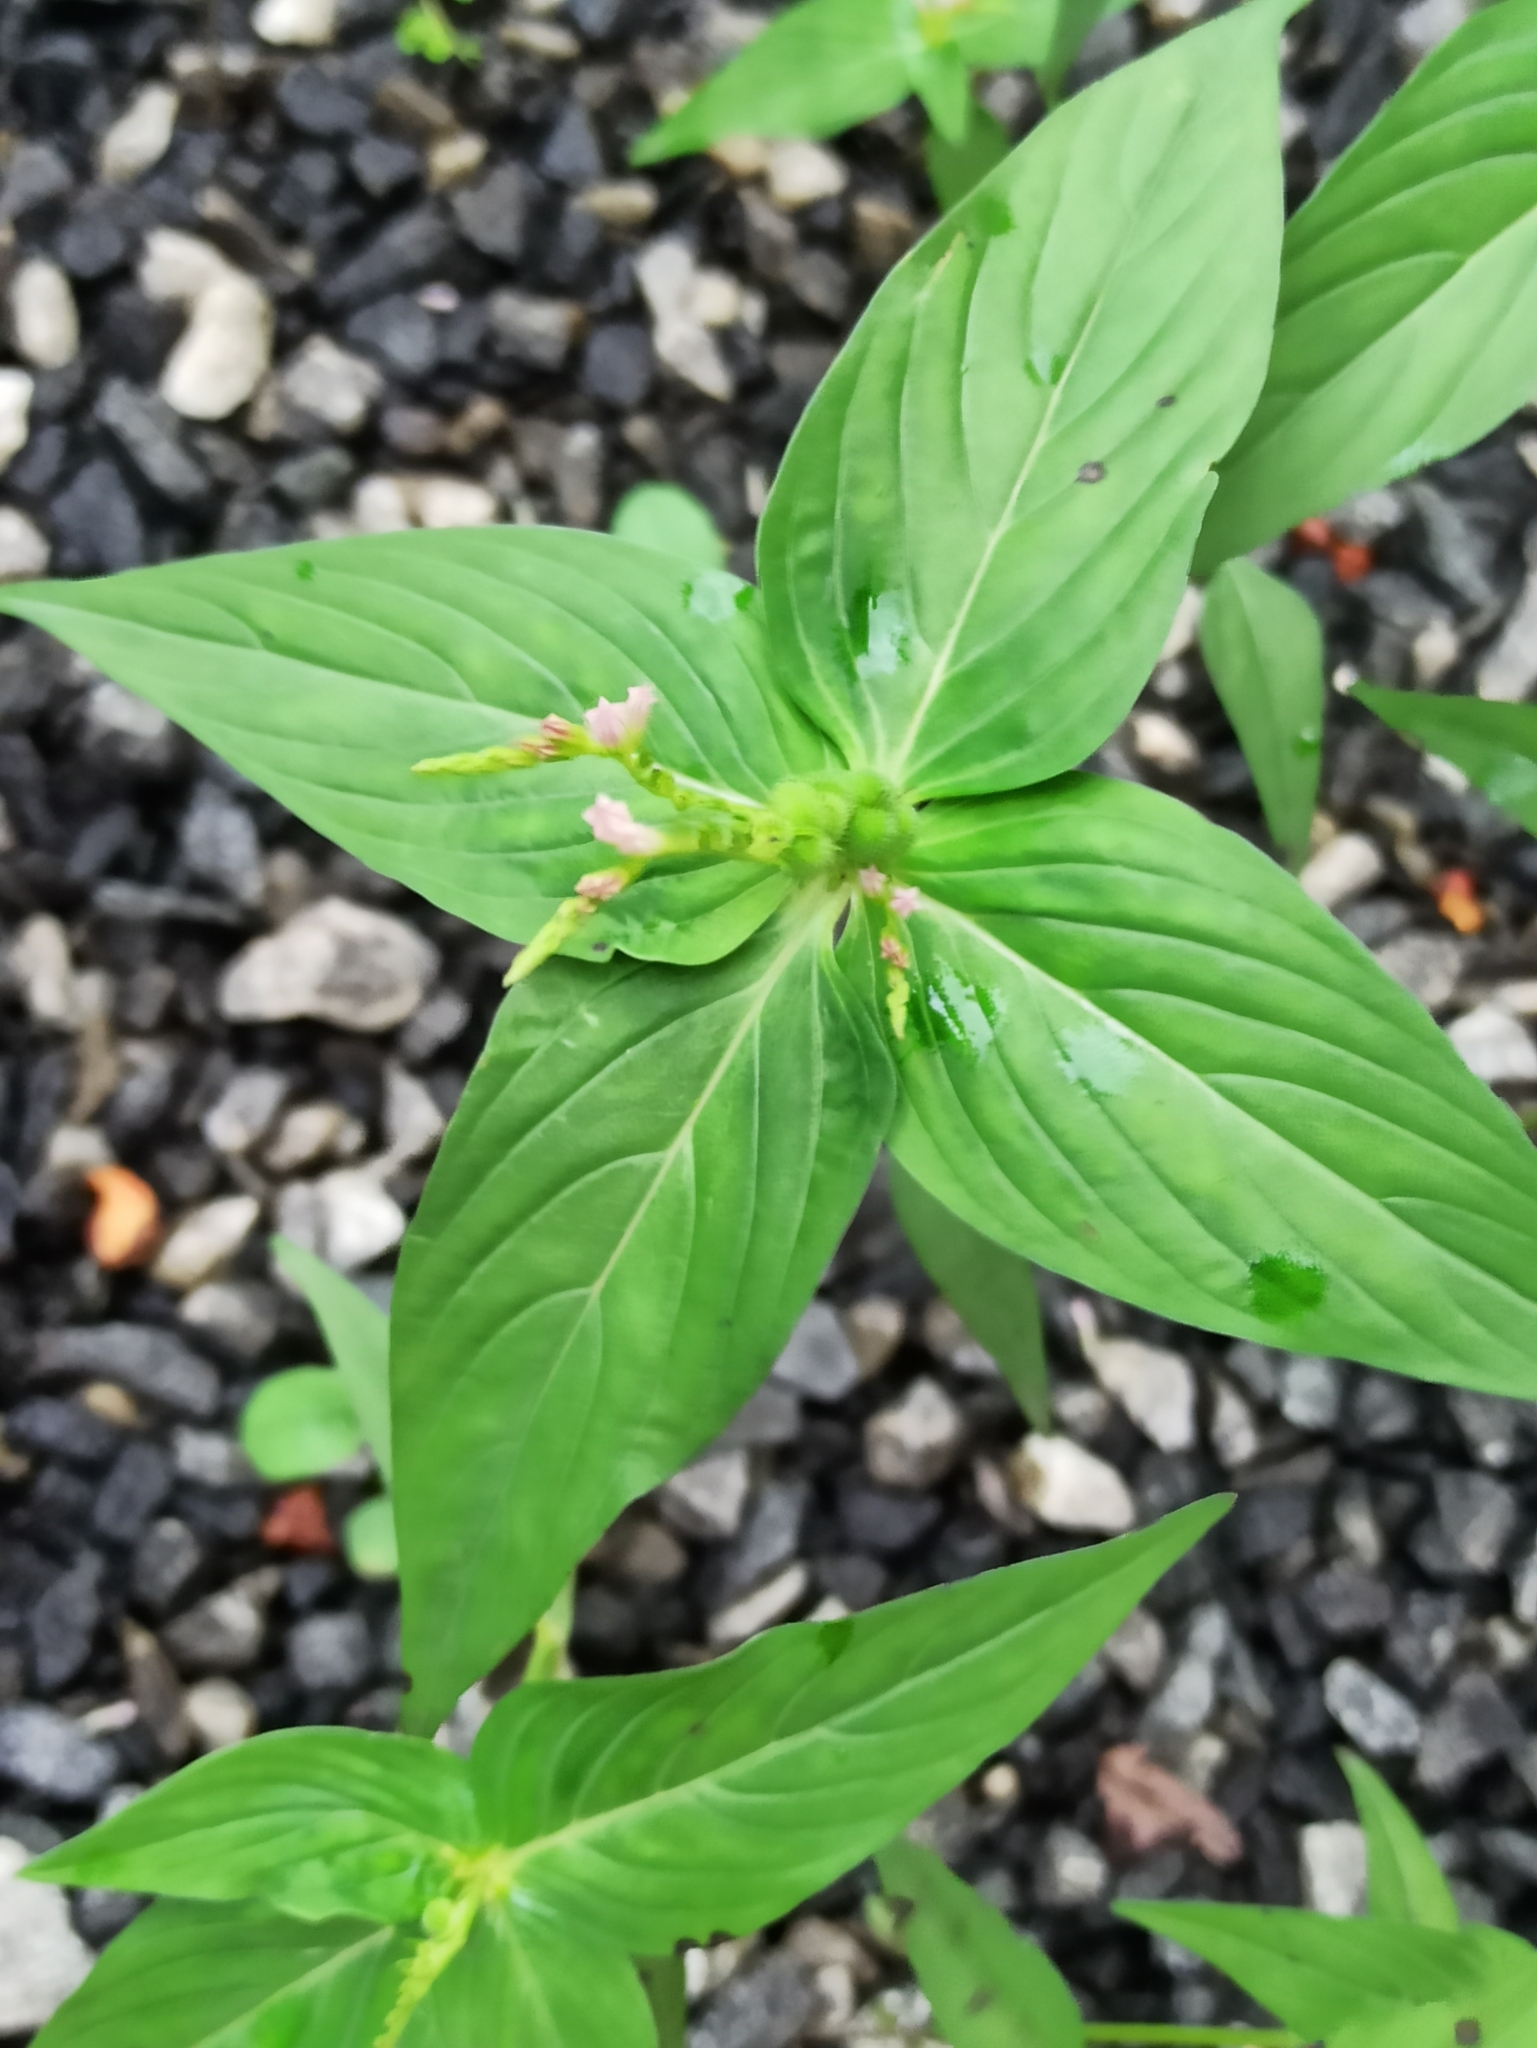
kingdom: Plantae
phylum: Tracheophyta
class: Magnoliopsida
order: Gentianales
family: Loganiaceae
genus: Spigelia
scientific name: Spigelia anthelmia
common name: West indian-pink
